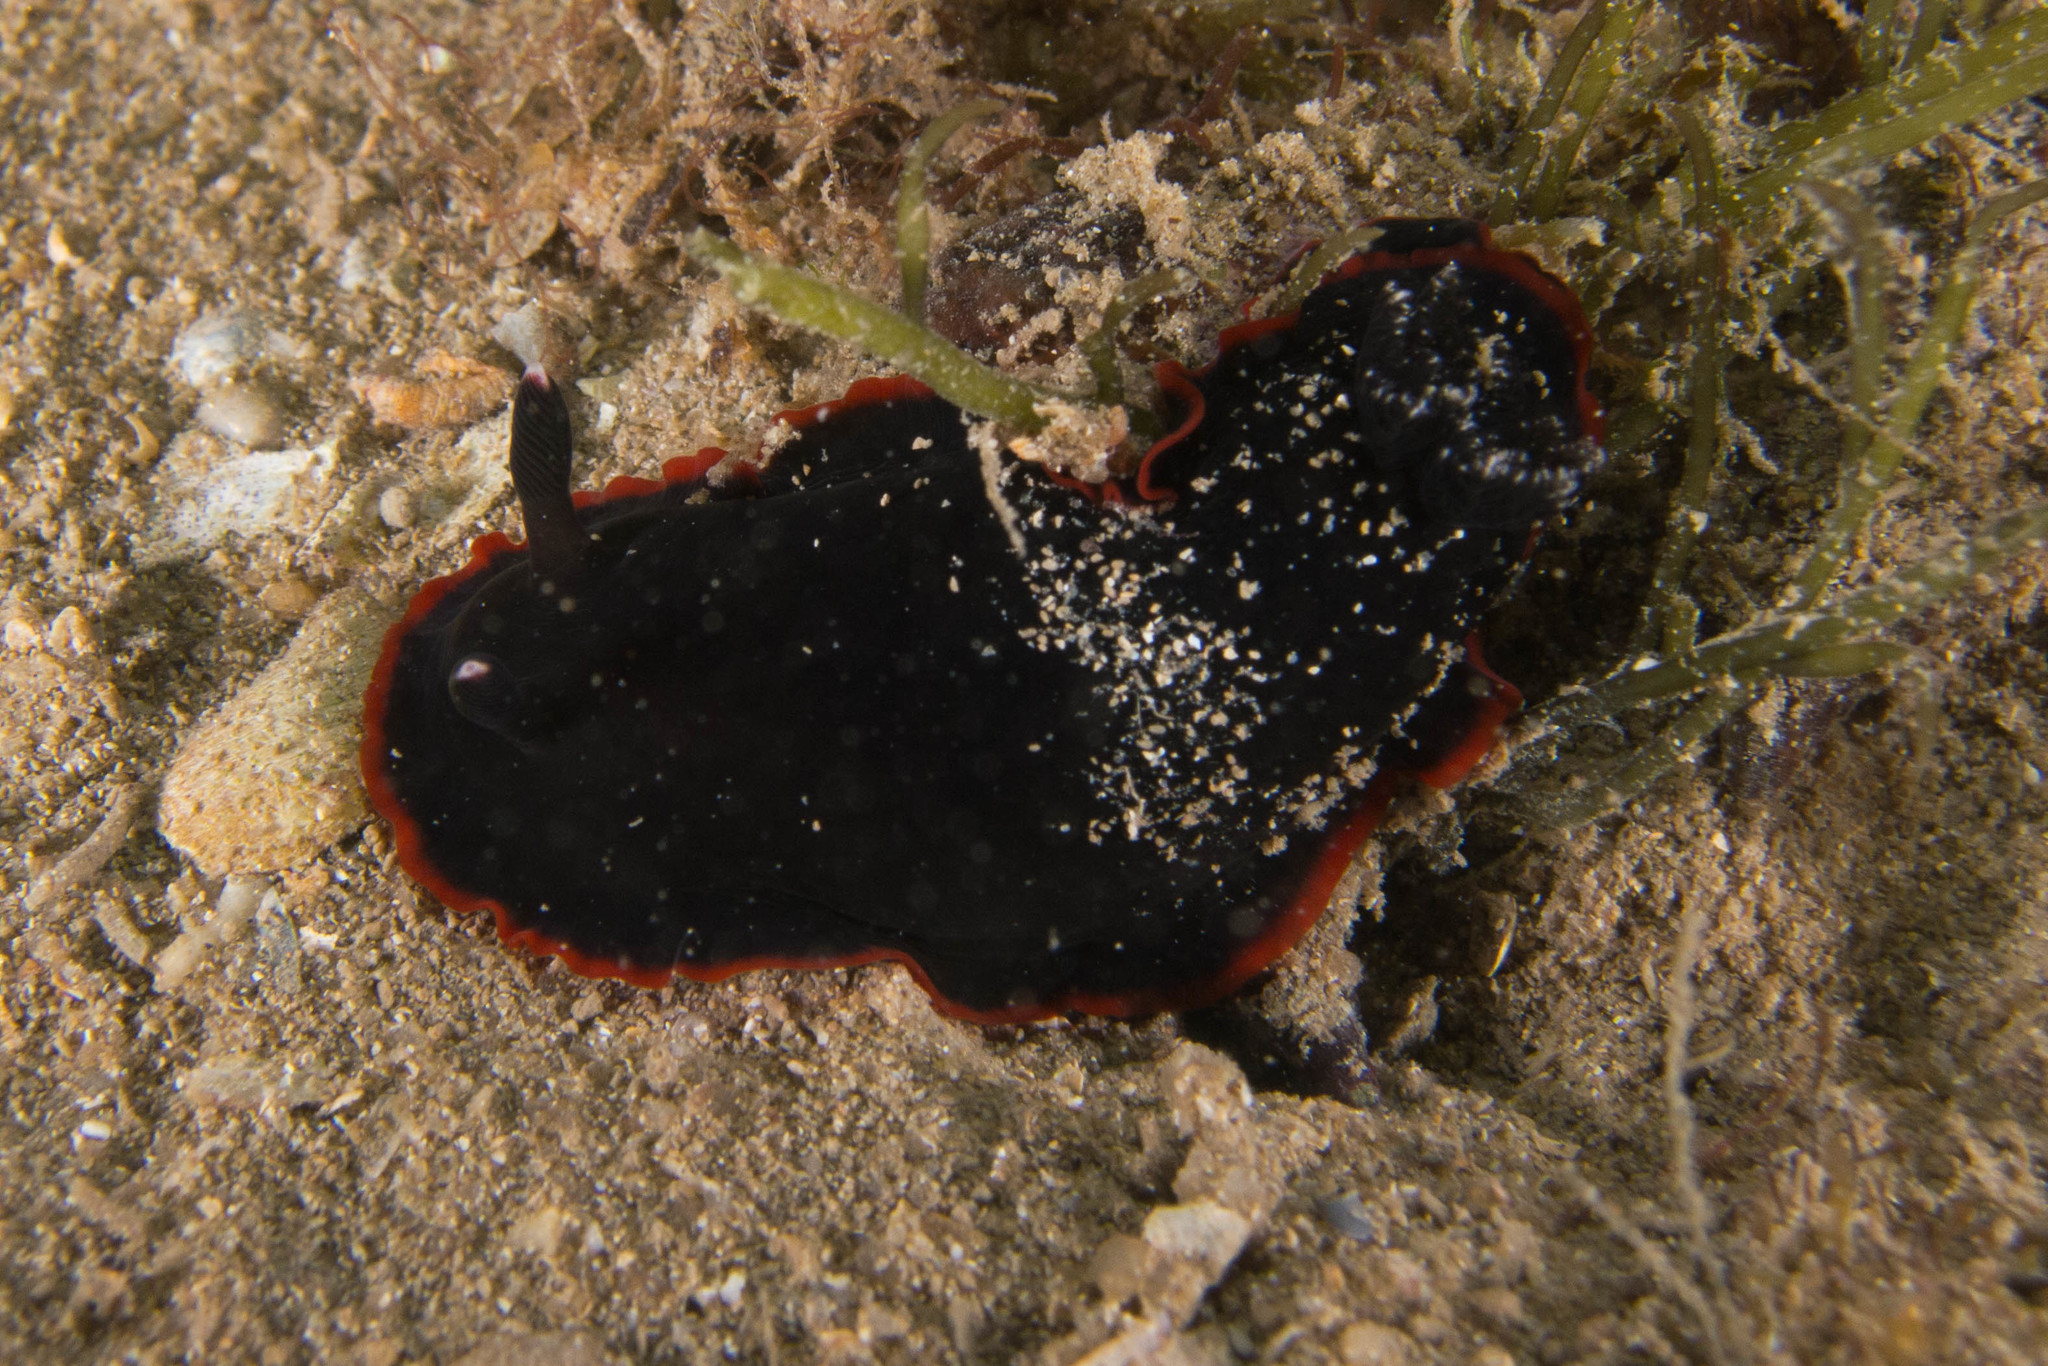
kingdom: Animalia
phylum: Mollusca
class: Gastropoda
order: Nudibranchia
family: Dendrodorididae
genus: Dendrodoris
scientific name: Dendrodoris arborescens
